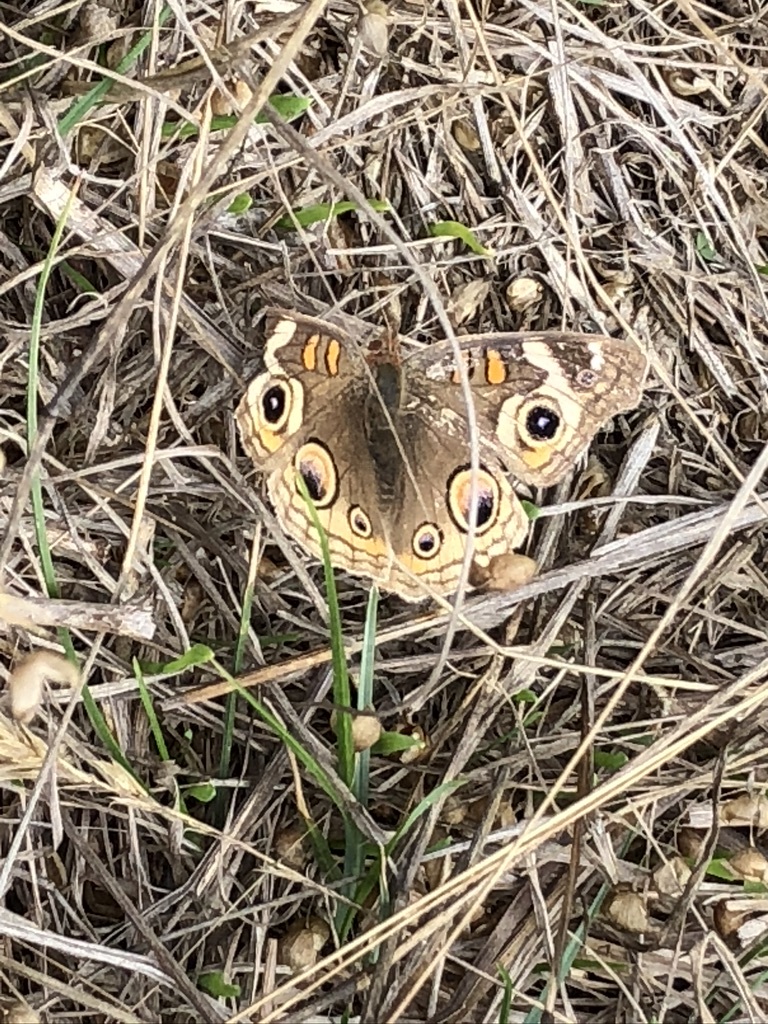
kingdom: Animalia
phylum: Arthropoda
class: Insecta
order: Lepidoptera
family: Nymphalidae
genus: Junonia
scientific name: Junonia grisea
